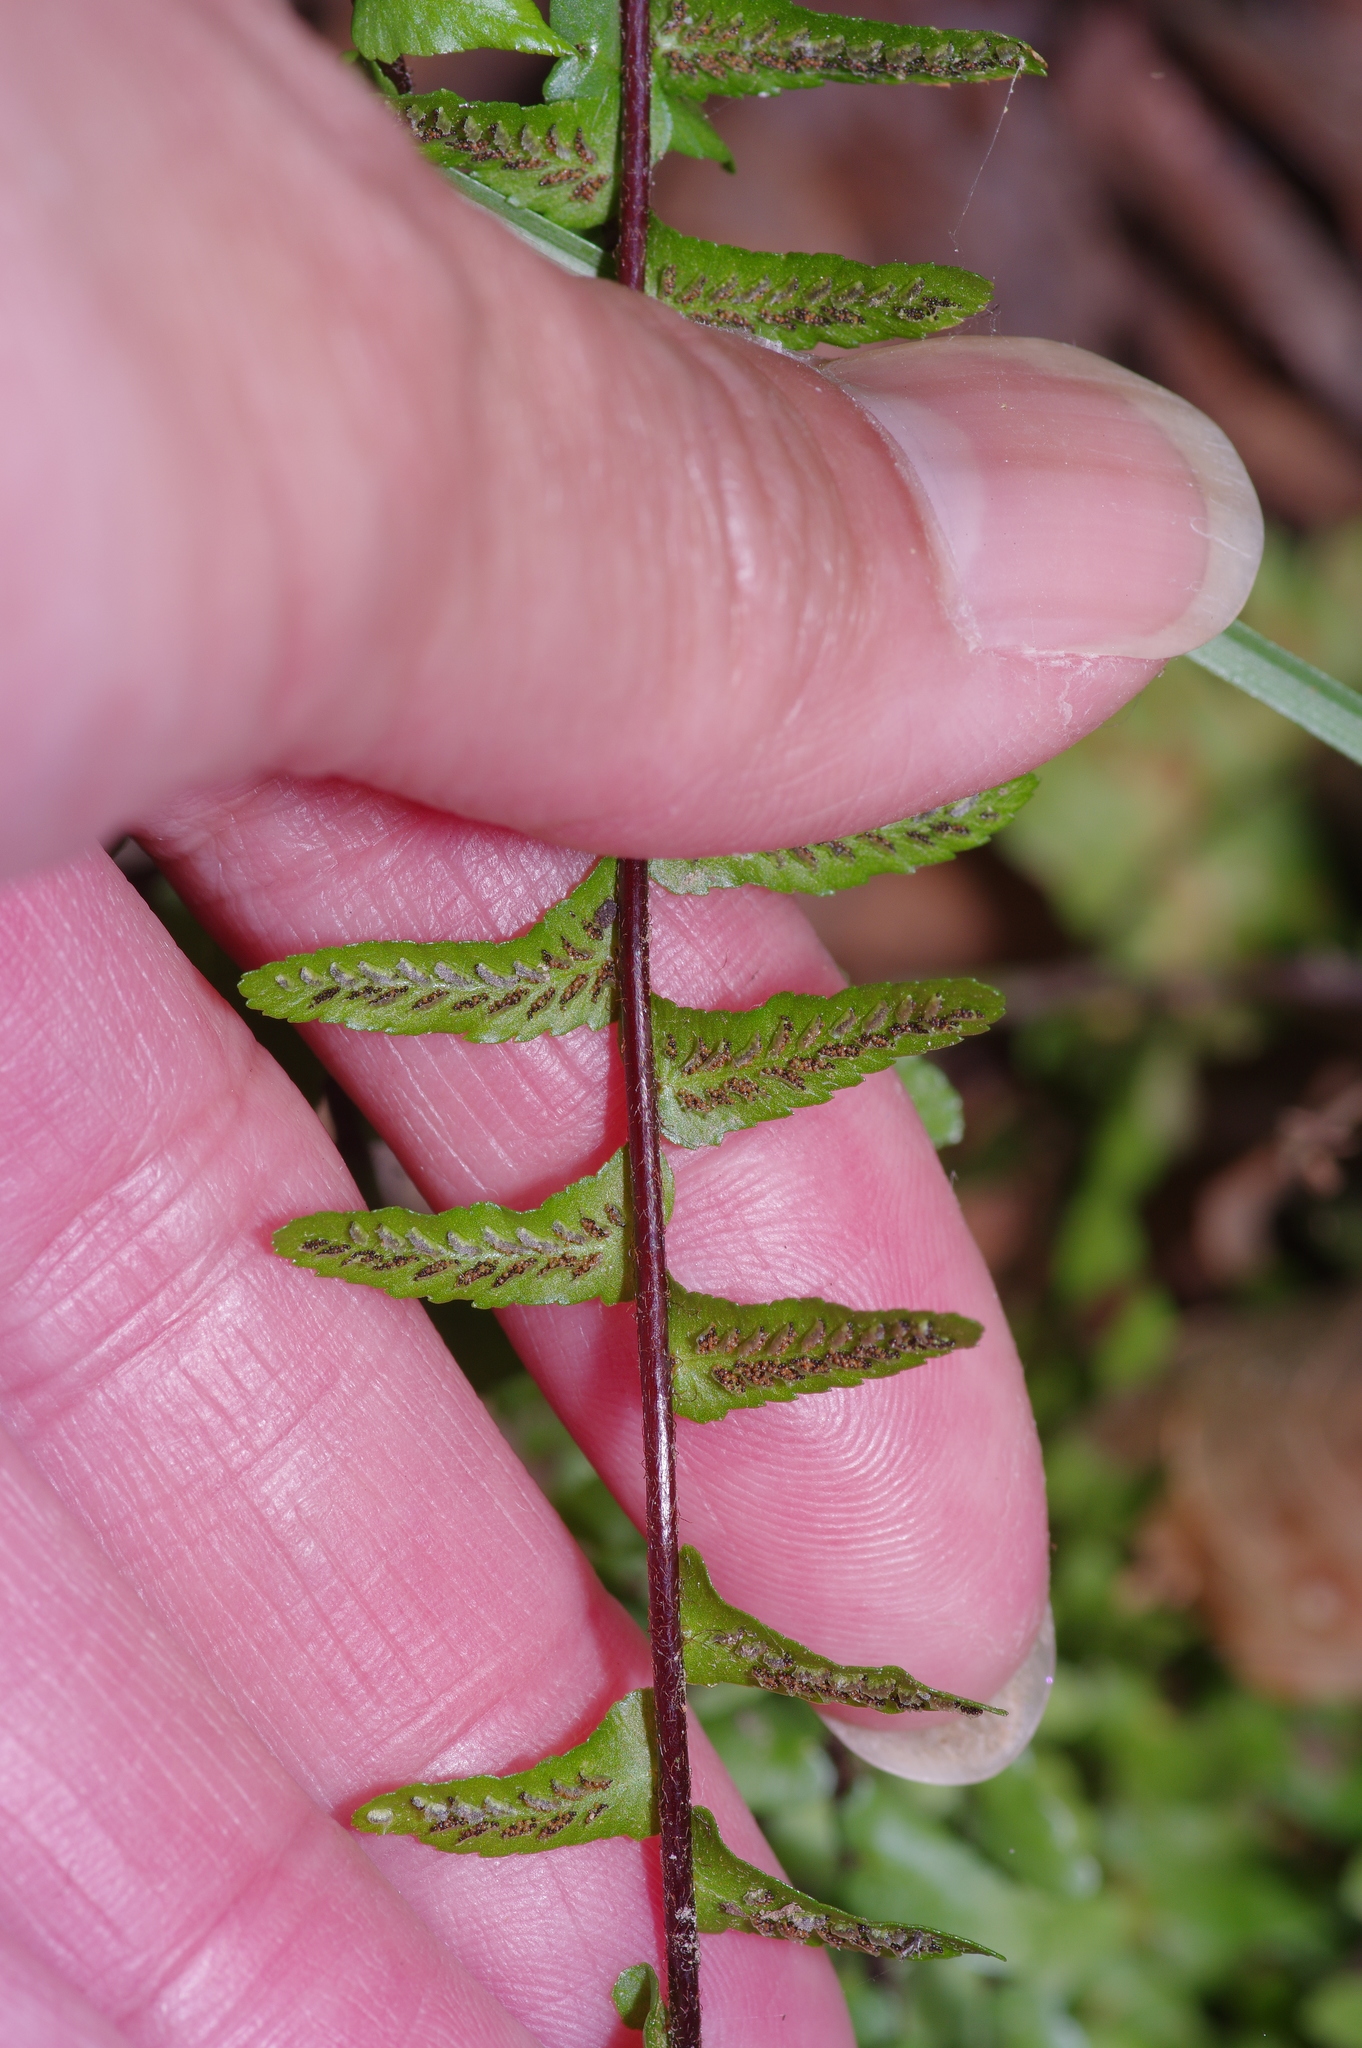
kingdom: Plantae
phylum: Tracheophyta
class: Polypodiopsida
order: Polypodiales
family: Aspleniaceae
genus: Asplenium
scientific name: Asplenium platyneuron
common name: Ebony spleenwort
